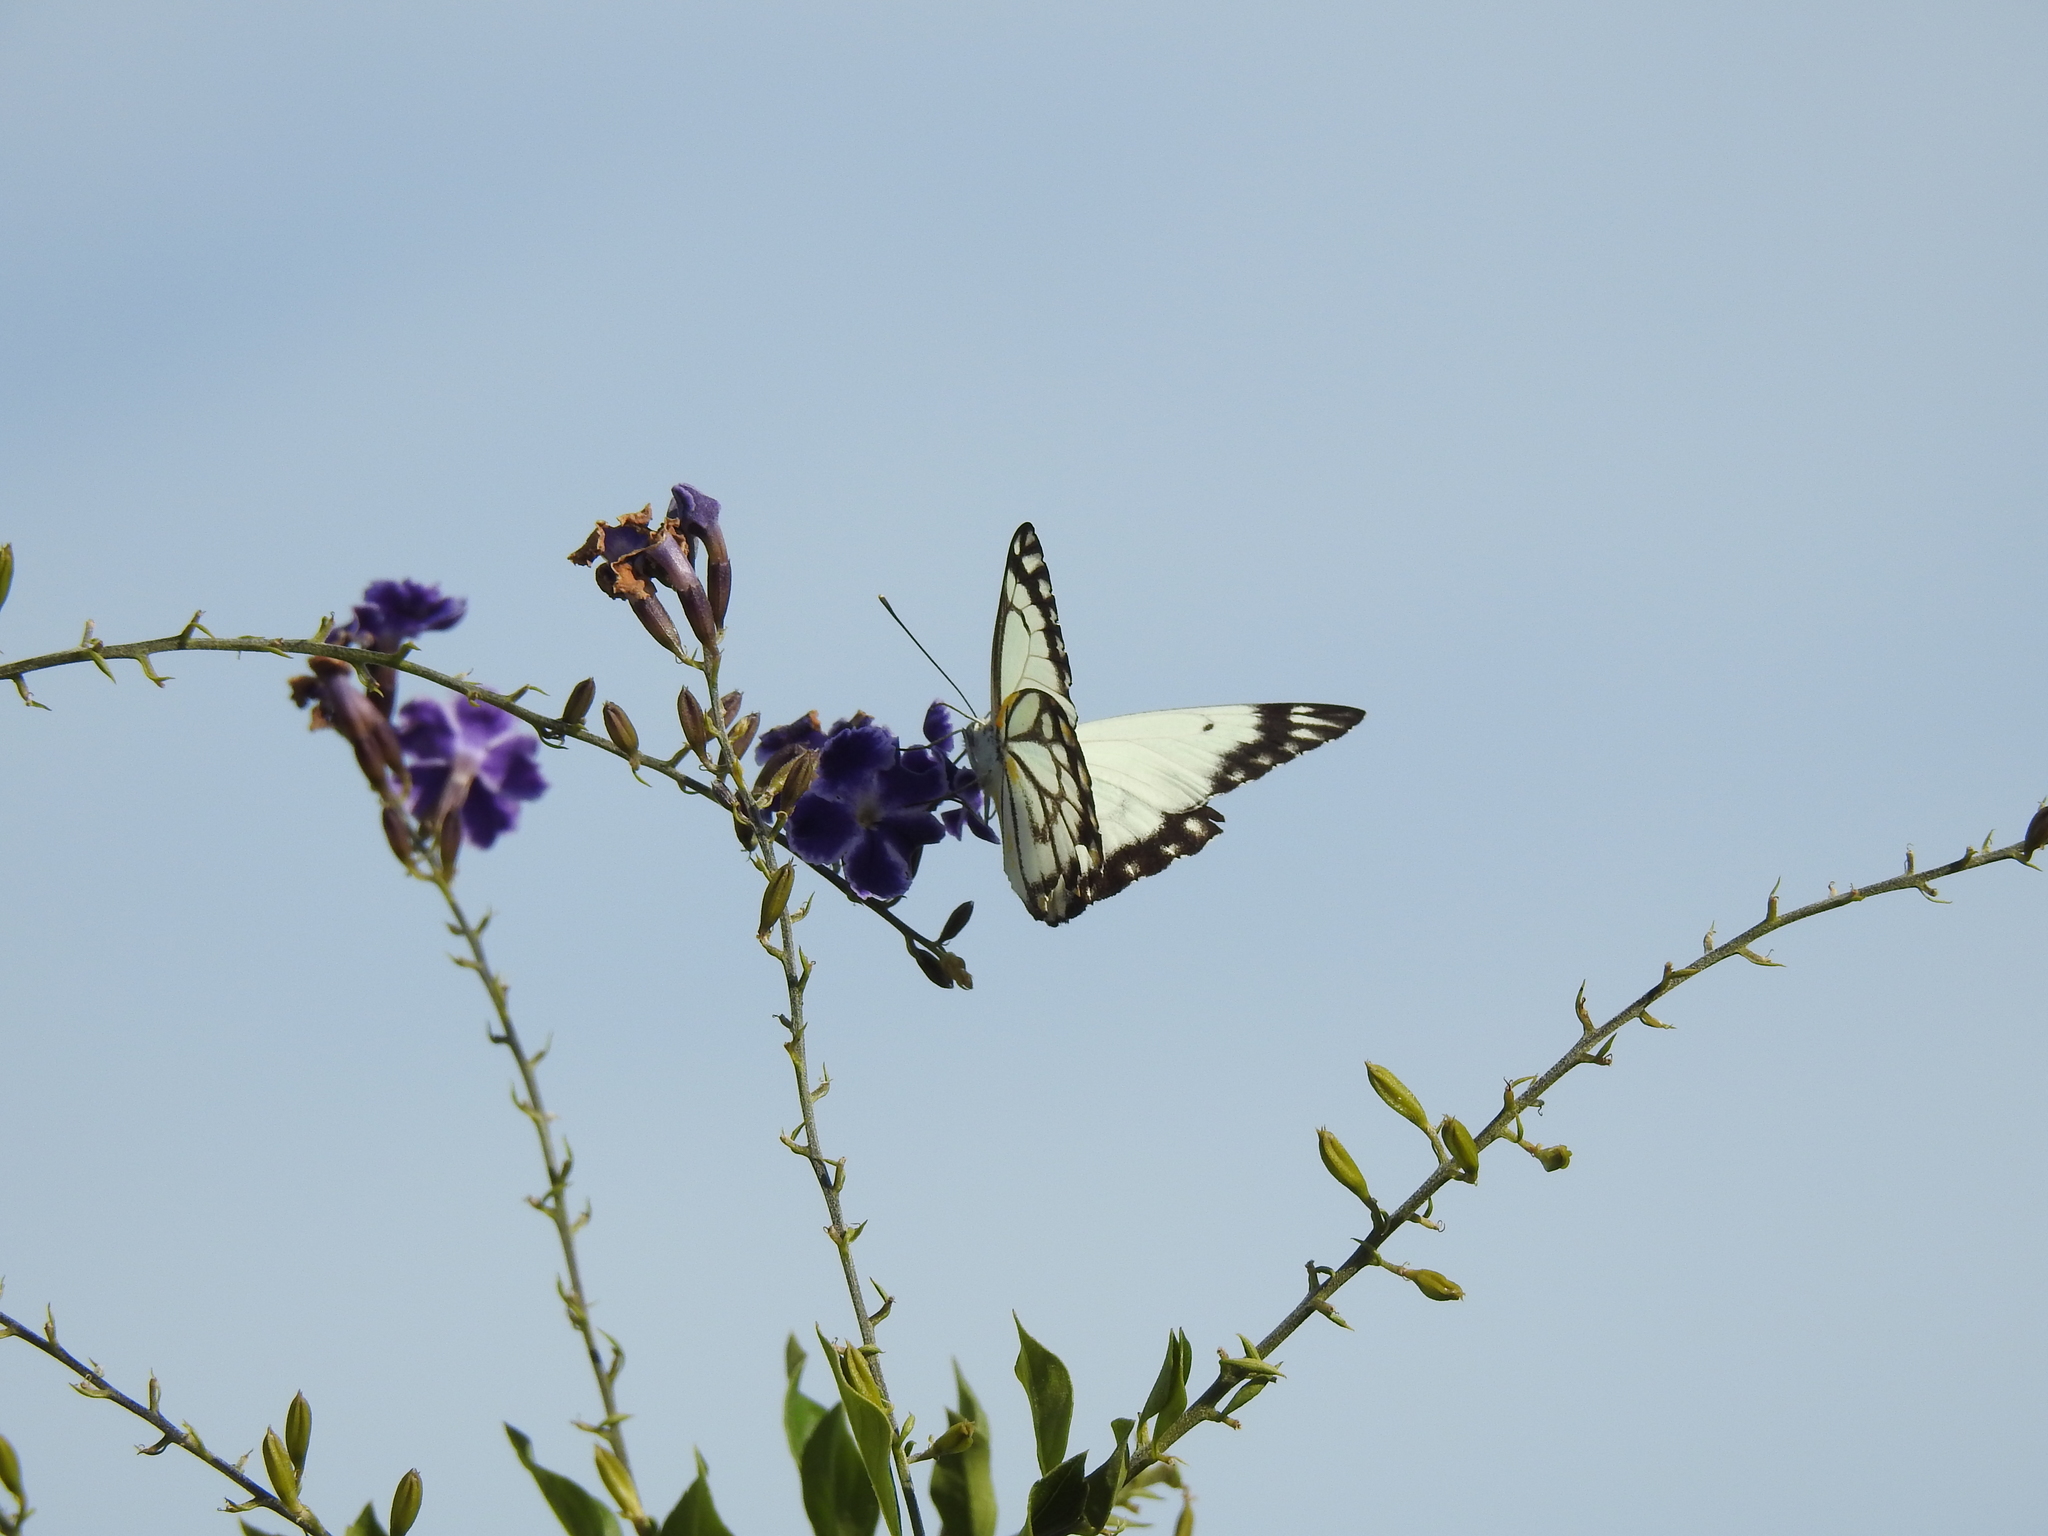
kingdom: Animalia
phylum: Arthropoda
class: Insecta
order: Lepidoptera
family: Pieridae
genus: Belenois
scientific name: Belenois java
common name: Caper white
